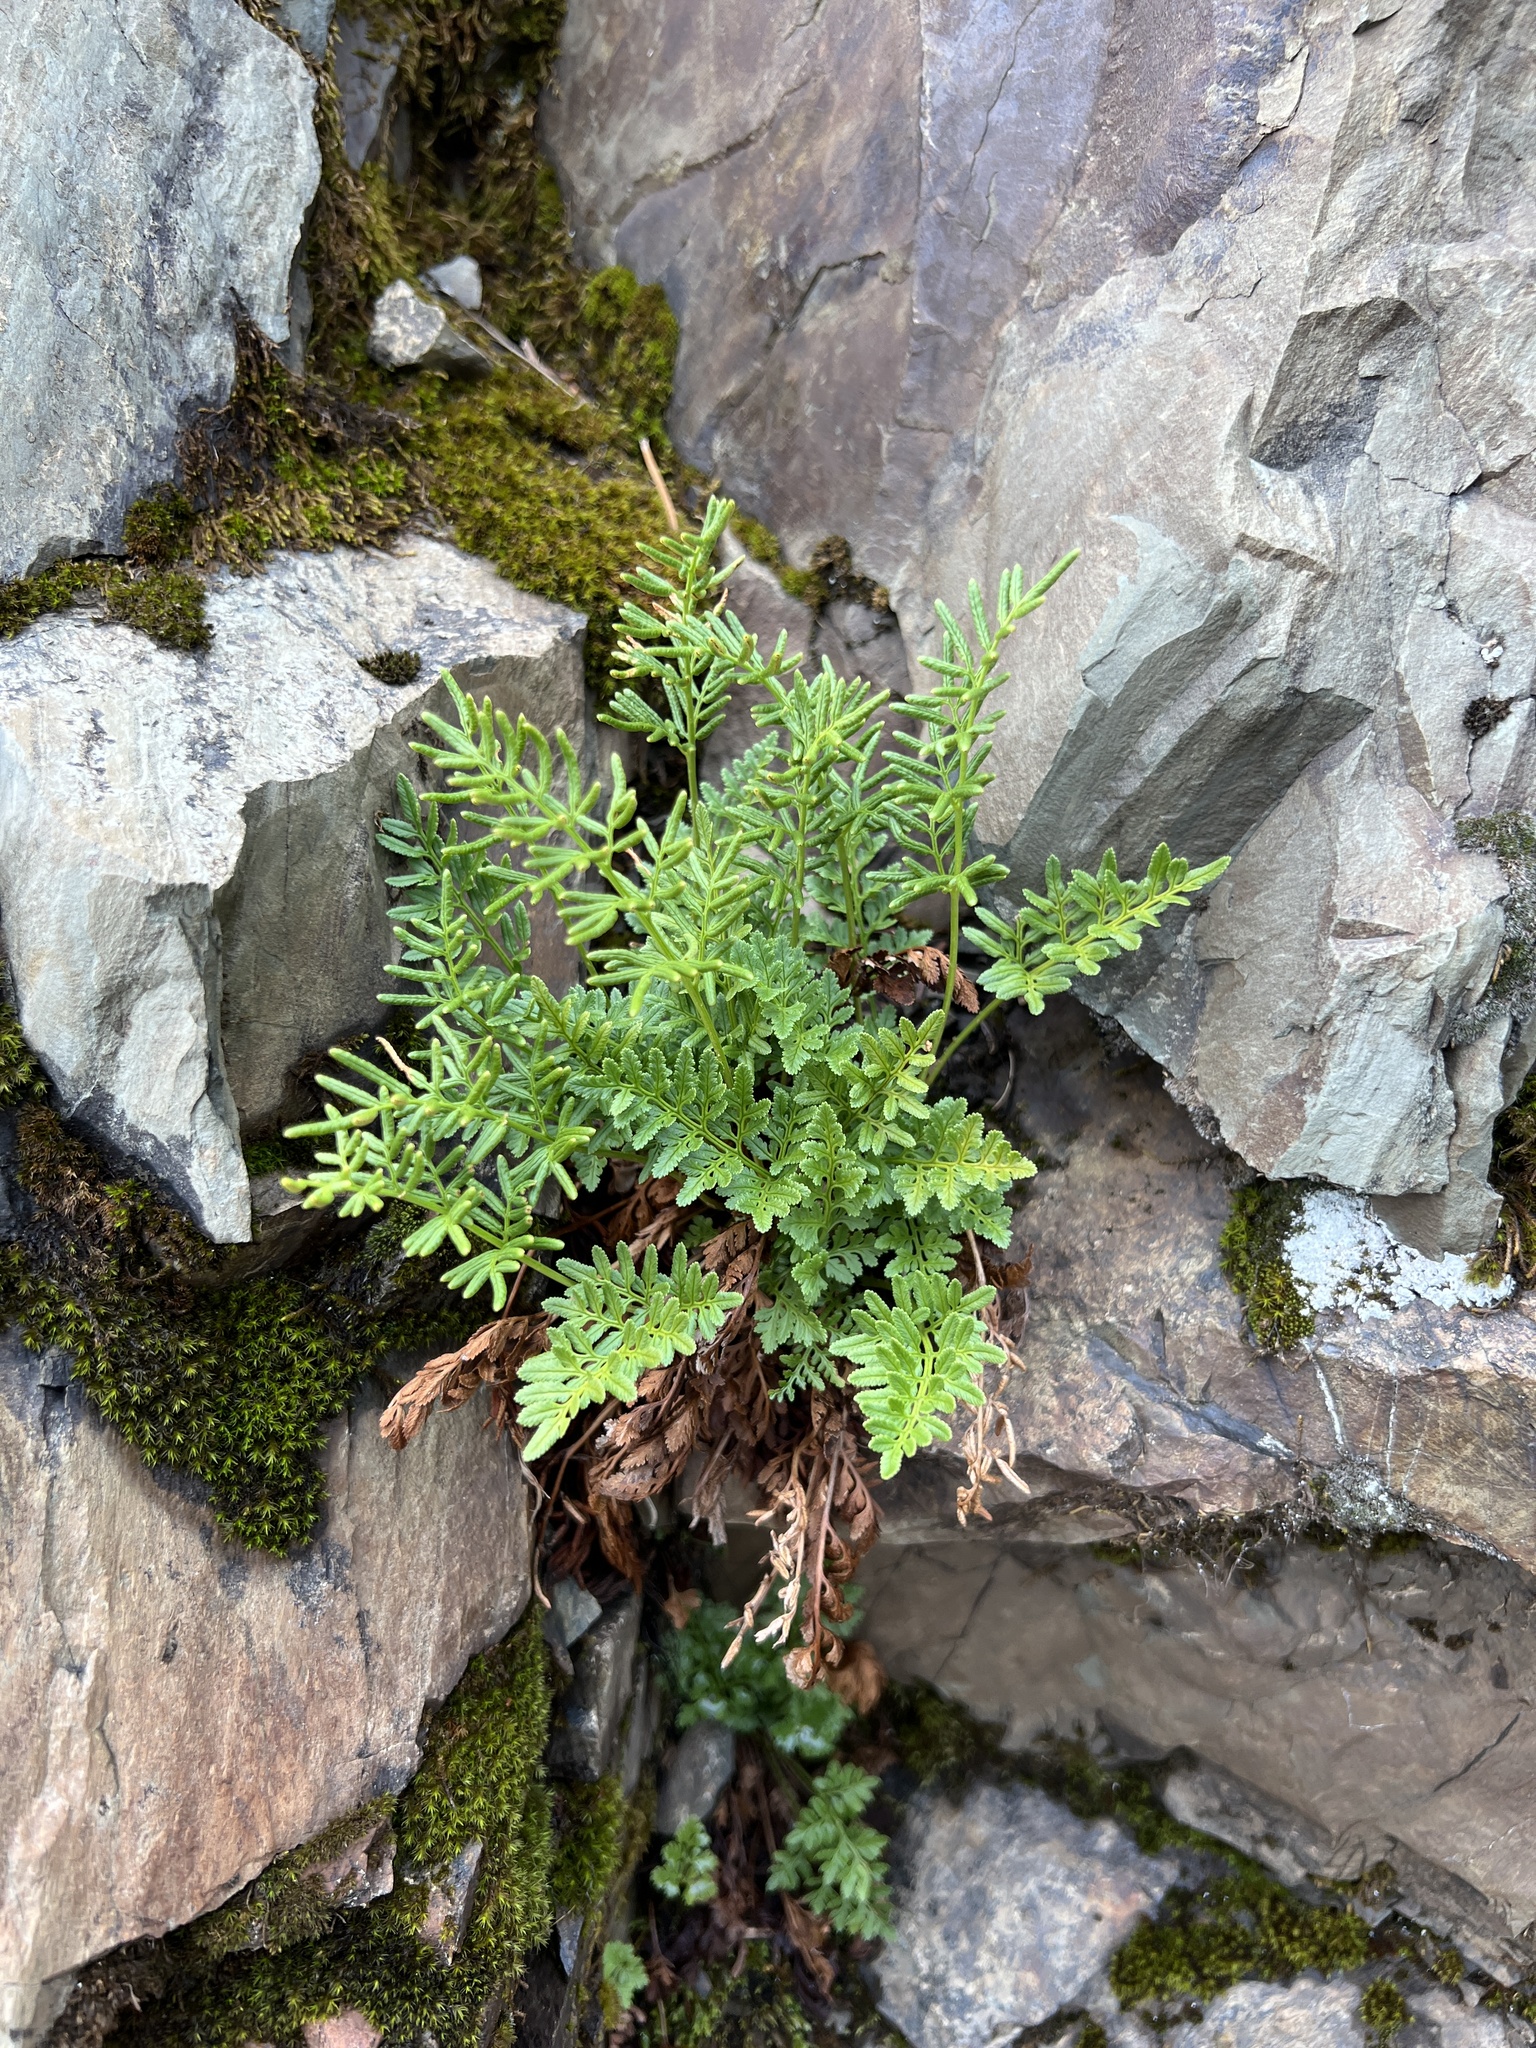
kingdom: Plantae
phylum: Tracheophyta
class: Polypodiopsida
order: Polypodiales
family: Pteridaceae
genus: Cryptogramma
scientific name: Cryptogramma acrostichoides
